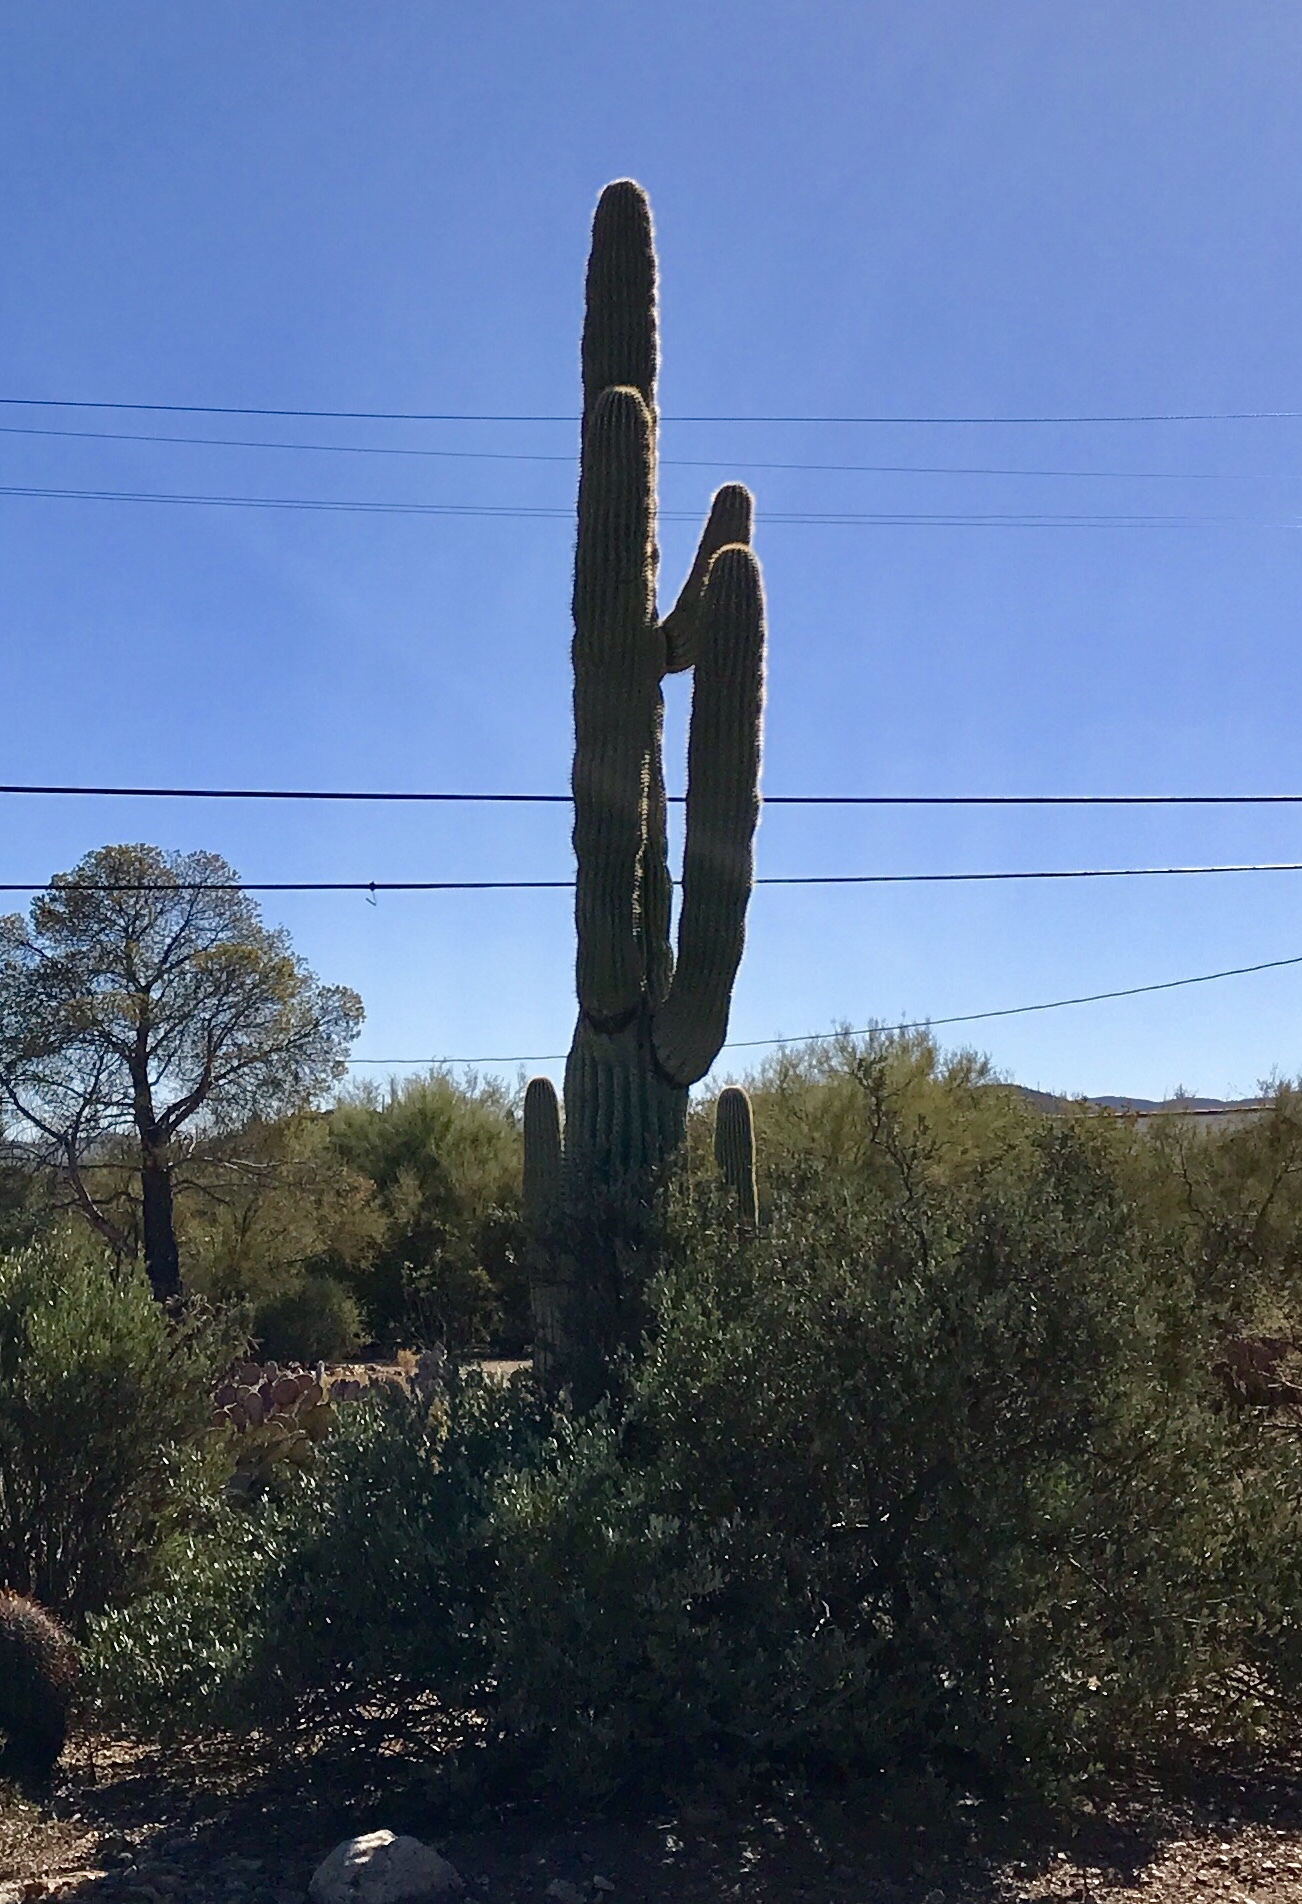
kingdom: Plantae
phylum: Tracheophyta
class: Magnoliopsida
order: Caryophyllales
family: Cactaceae
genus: Carnegiea
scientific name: Carnegiea gigantea
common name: Saguaro
